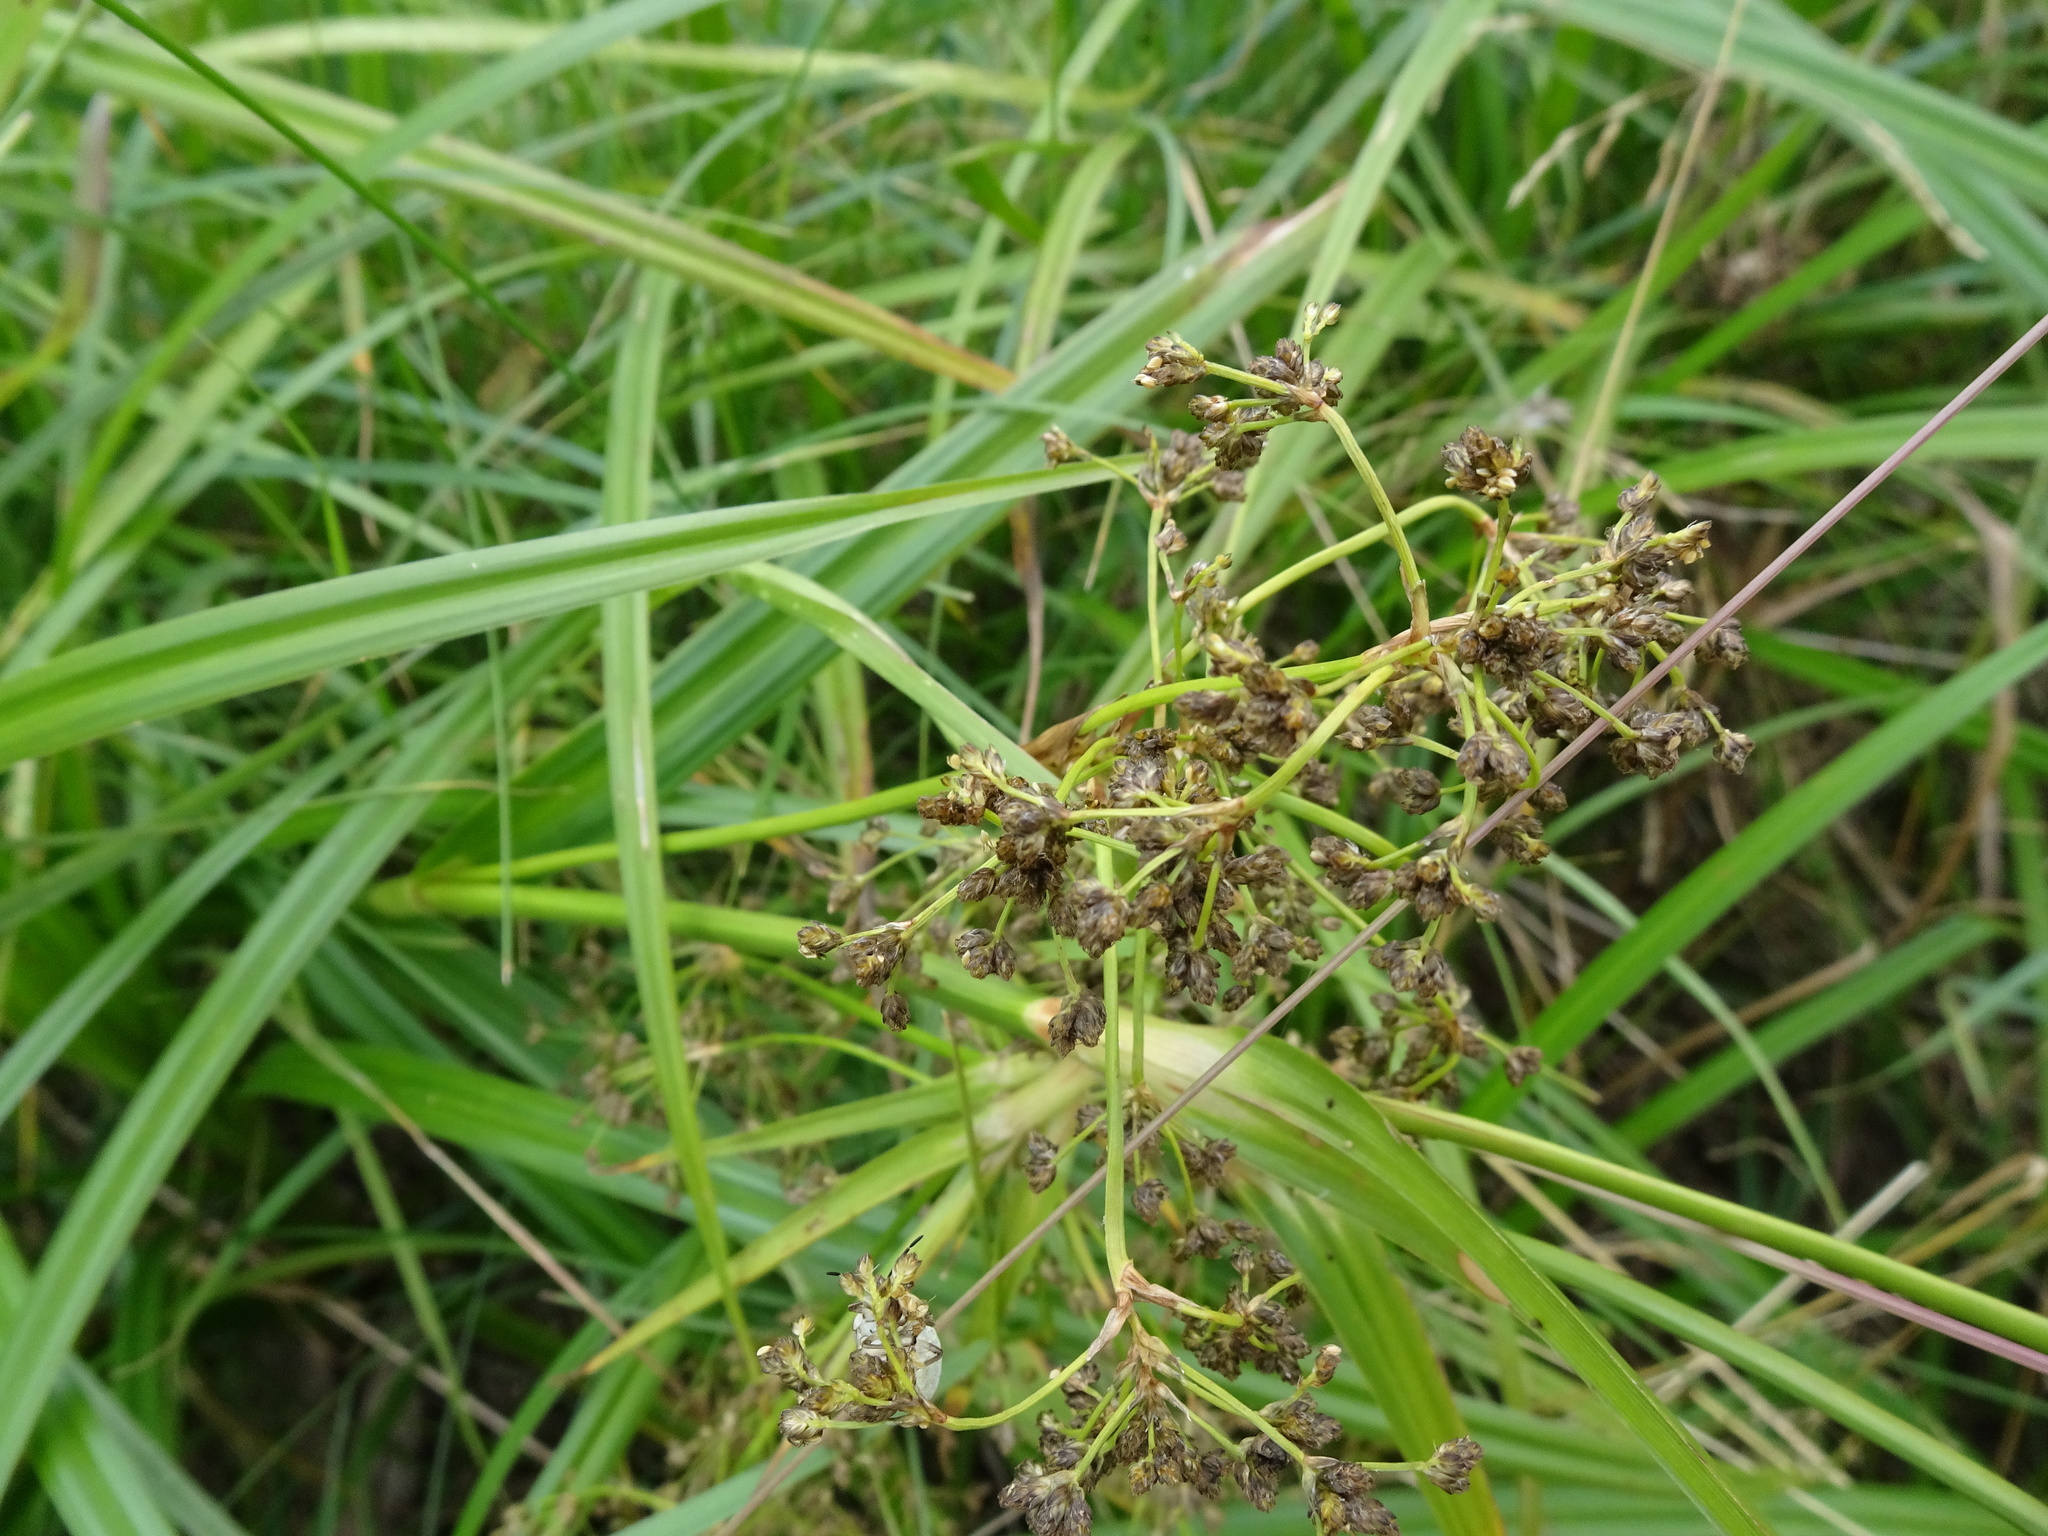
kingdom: Plantae
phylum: Tracheophyta
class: Liliopsida
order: Poales
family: Cyperaceae
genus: Scirpus
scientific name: Scirpus sylvaticus
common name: Wood club-rush
